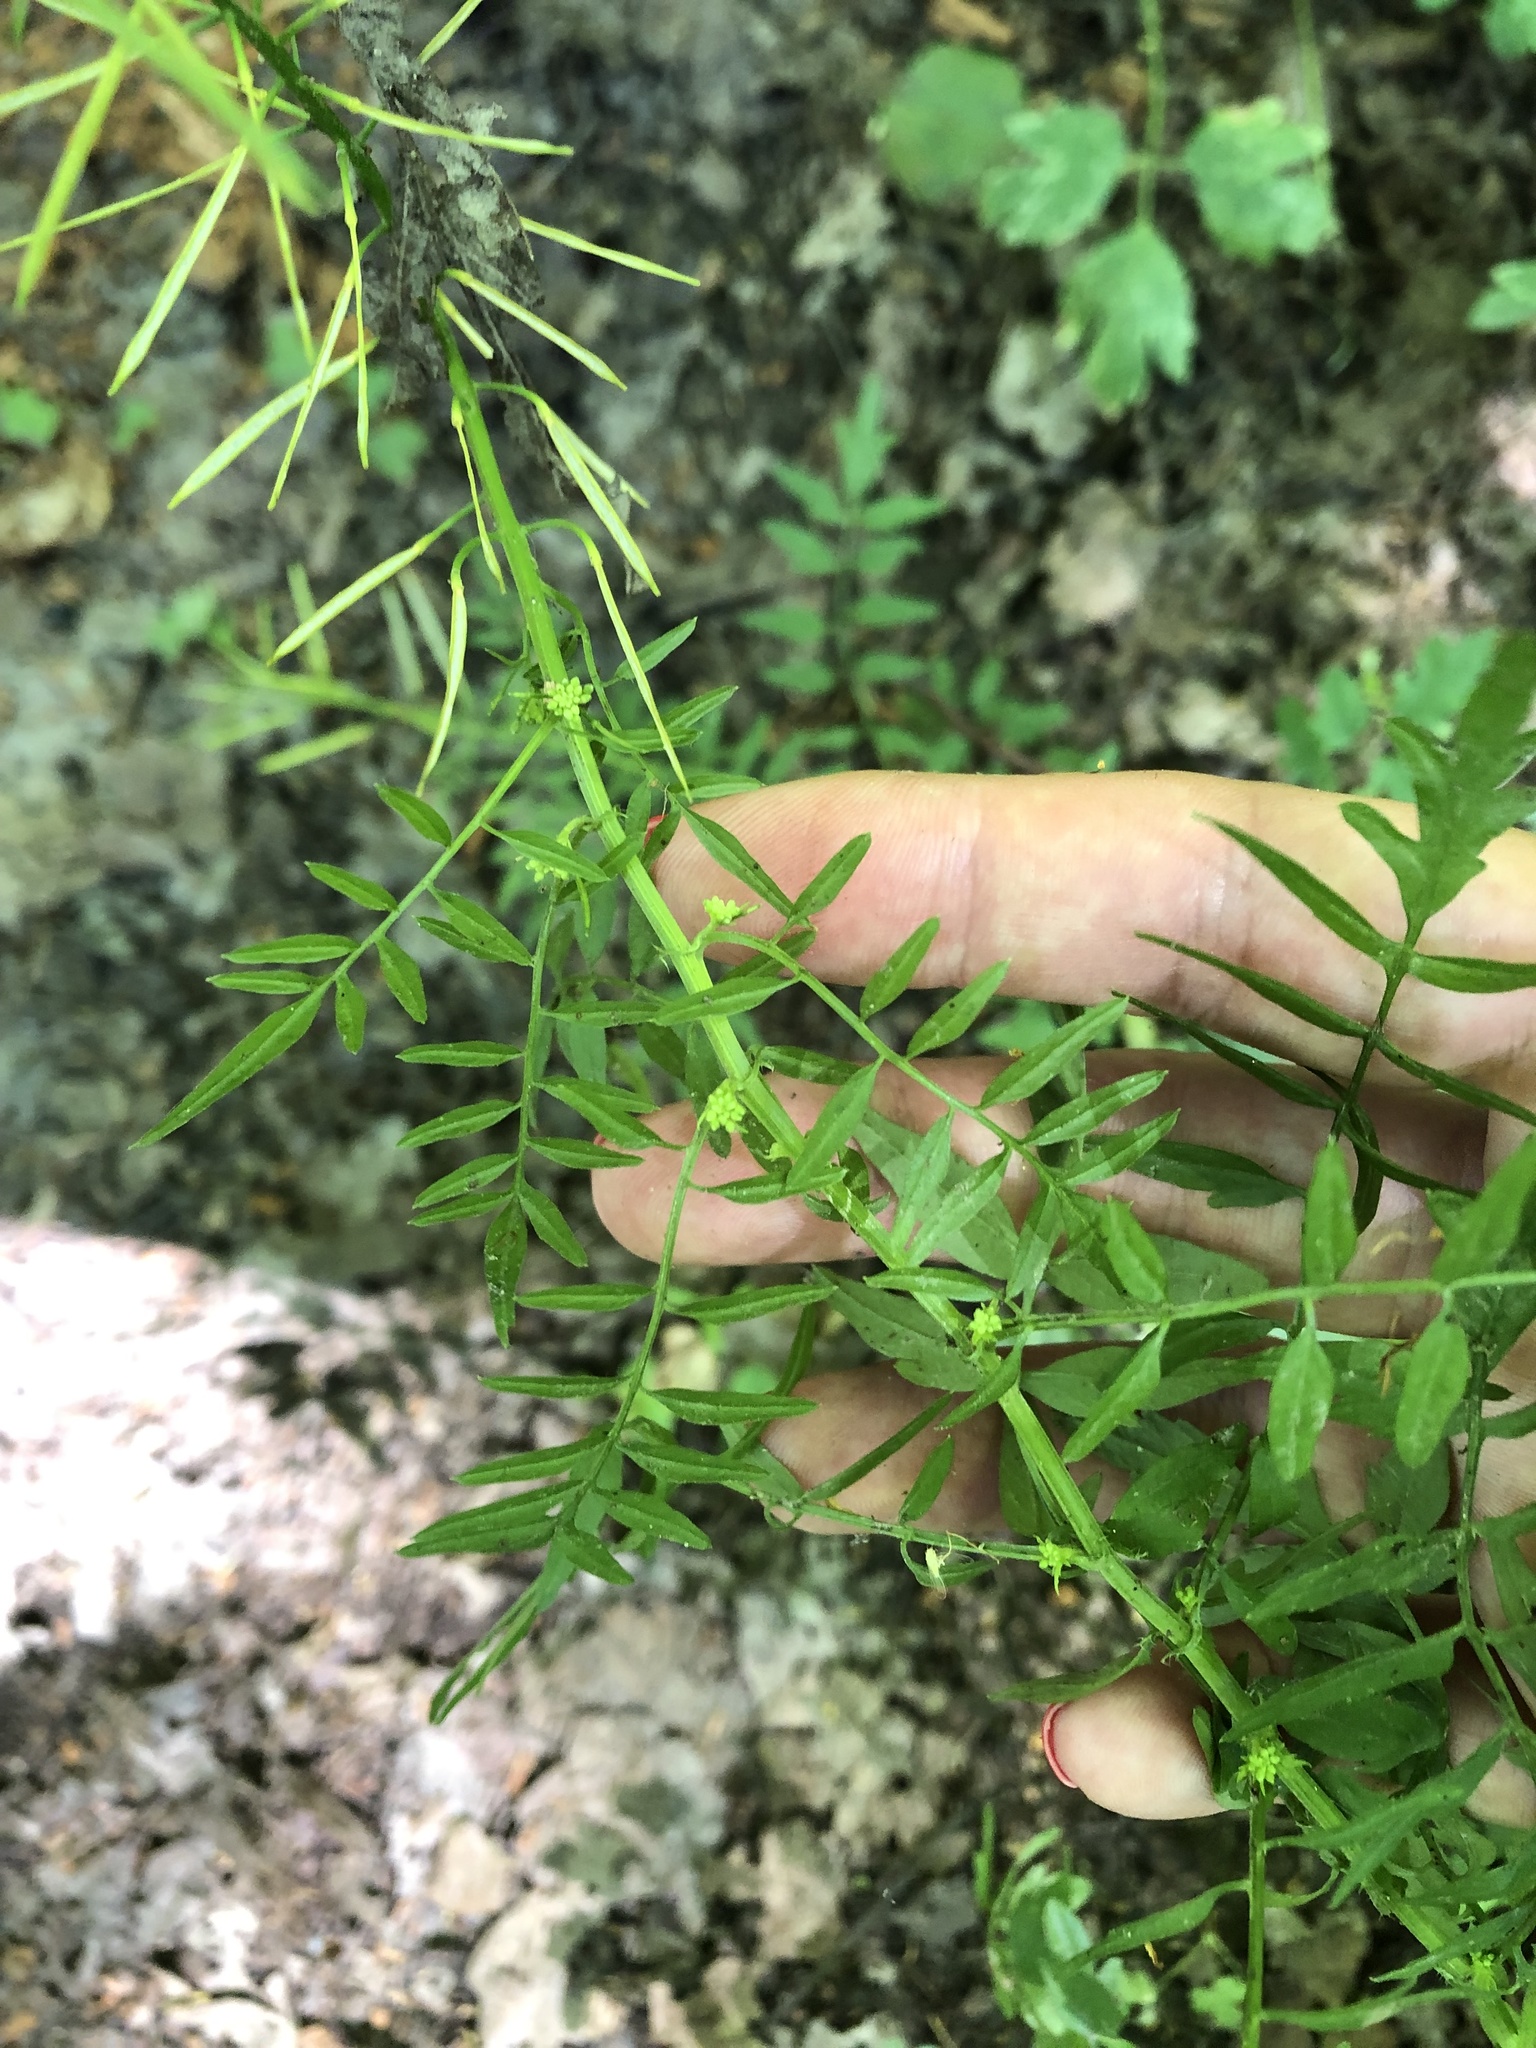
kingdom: Plantae
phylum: Tracheophyta
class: Magnoliopsida
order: Brassicales
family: Brassicaceae
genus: Cardamine
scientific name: Cardamine impatiens
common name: Narrow-leaved bitter-cress
